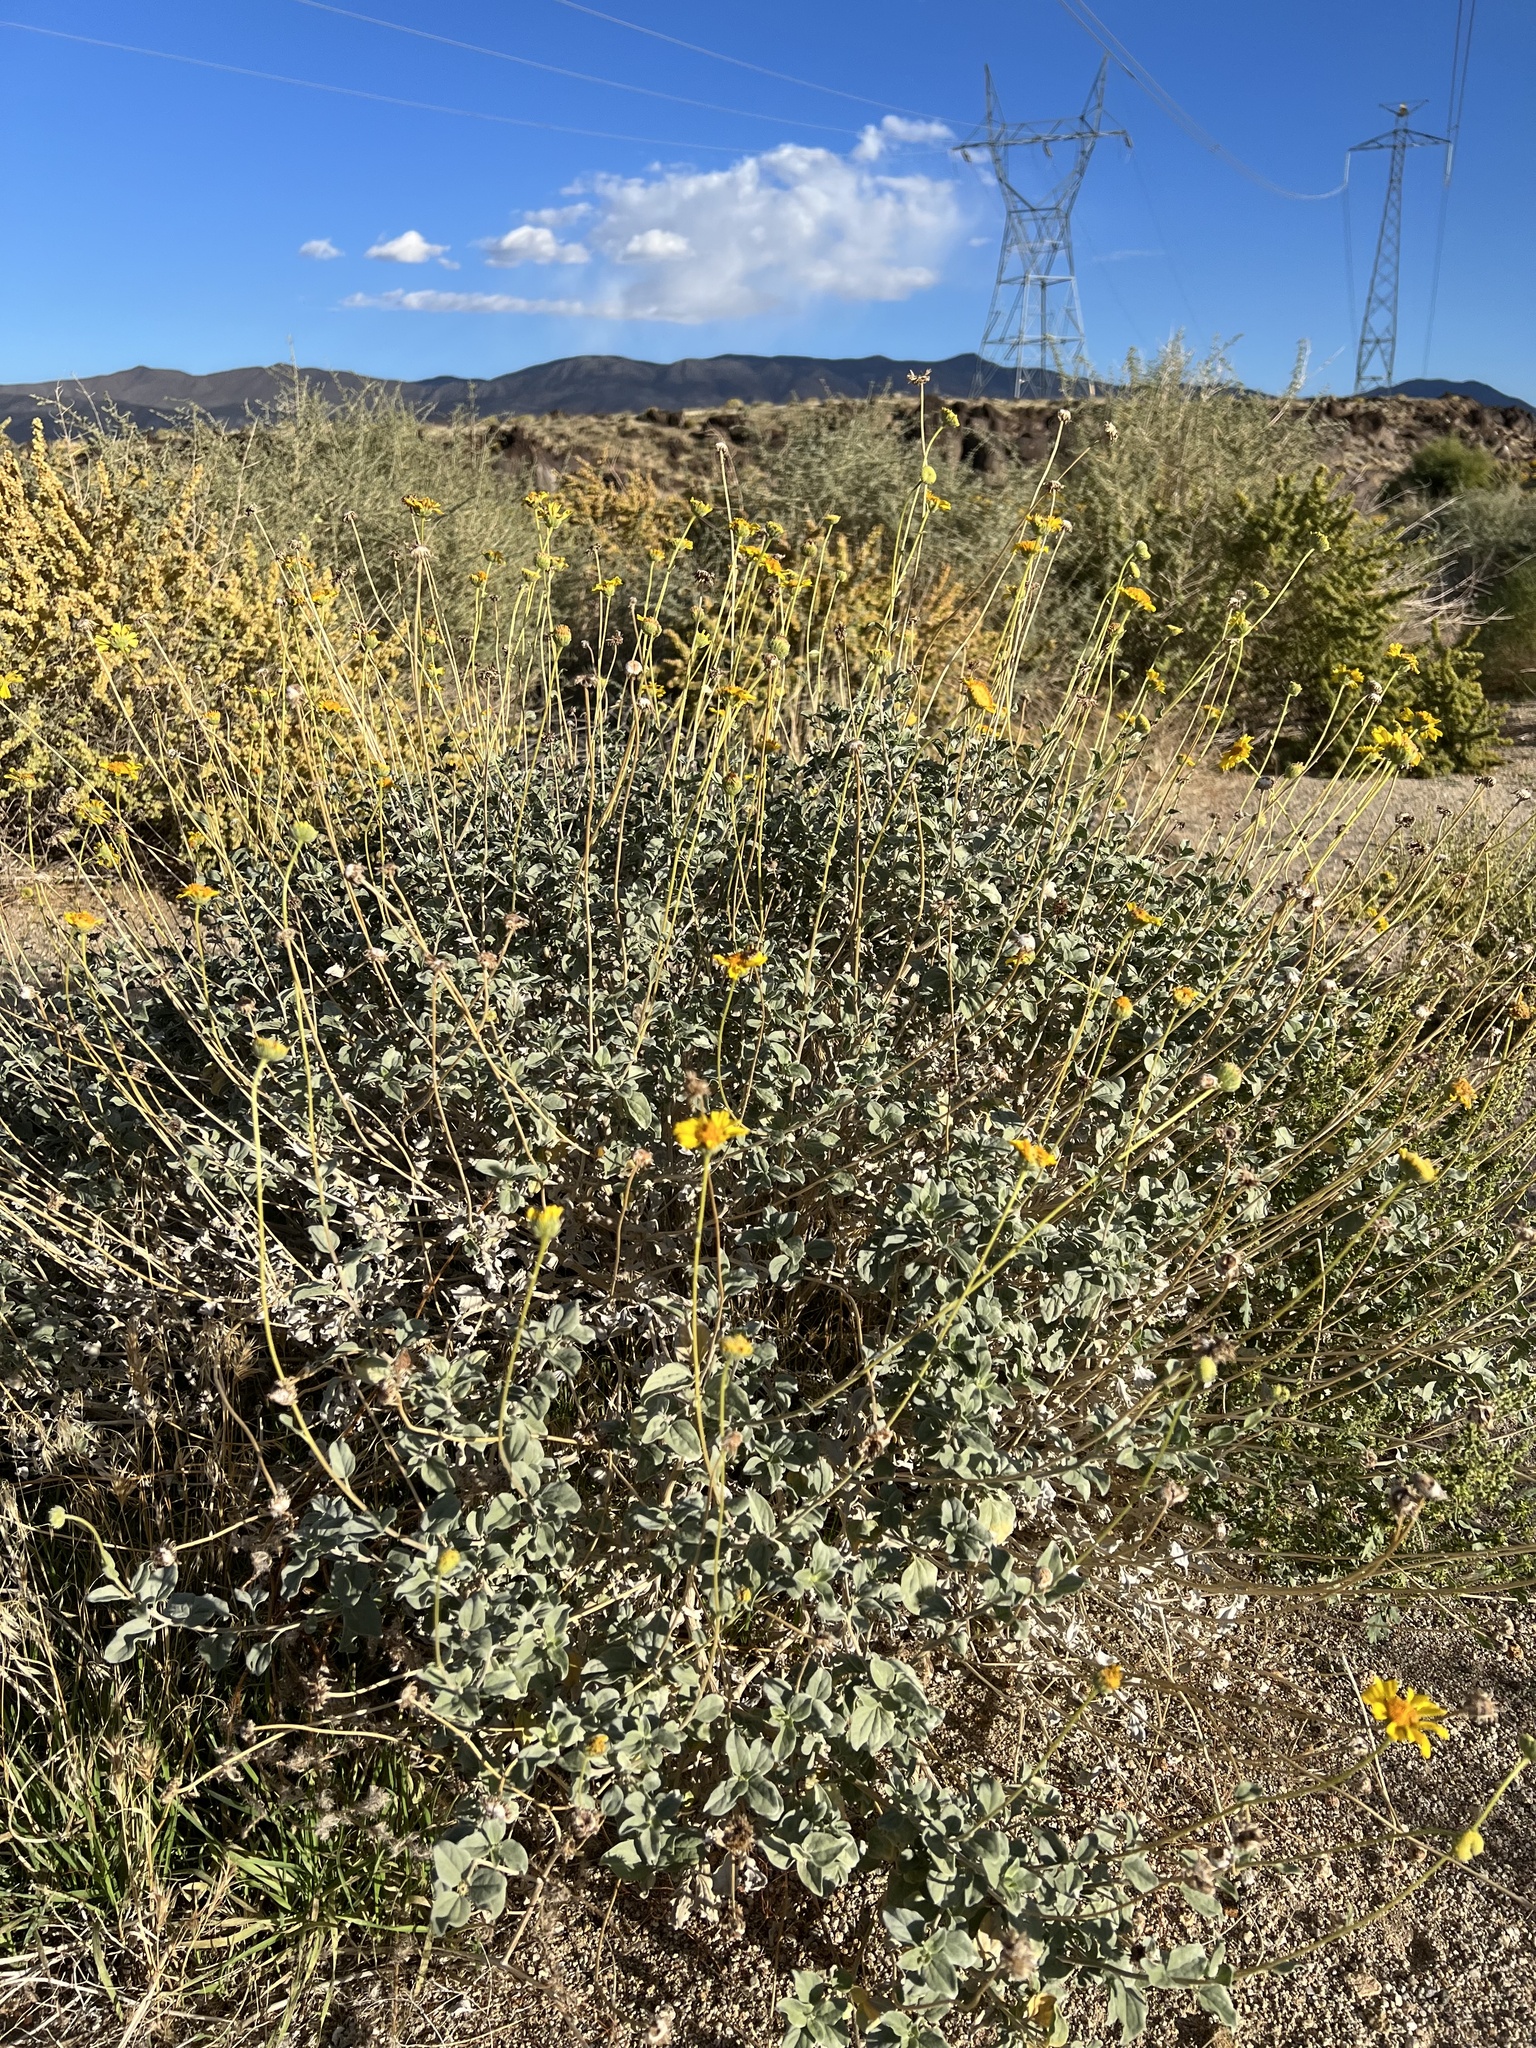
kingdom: Plantae
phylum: Tracheophyta
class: Magnoliopsida
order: Asterales
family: Asteraceae
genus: Encelia
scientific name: Encelia actoni
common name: Acton encelia
